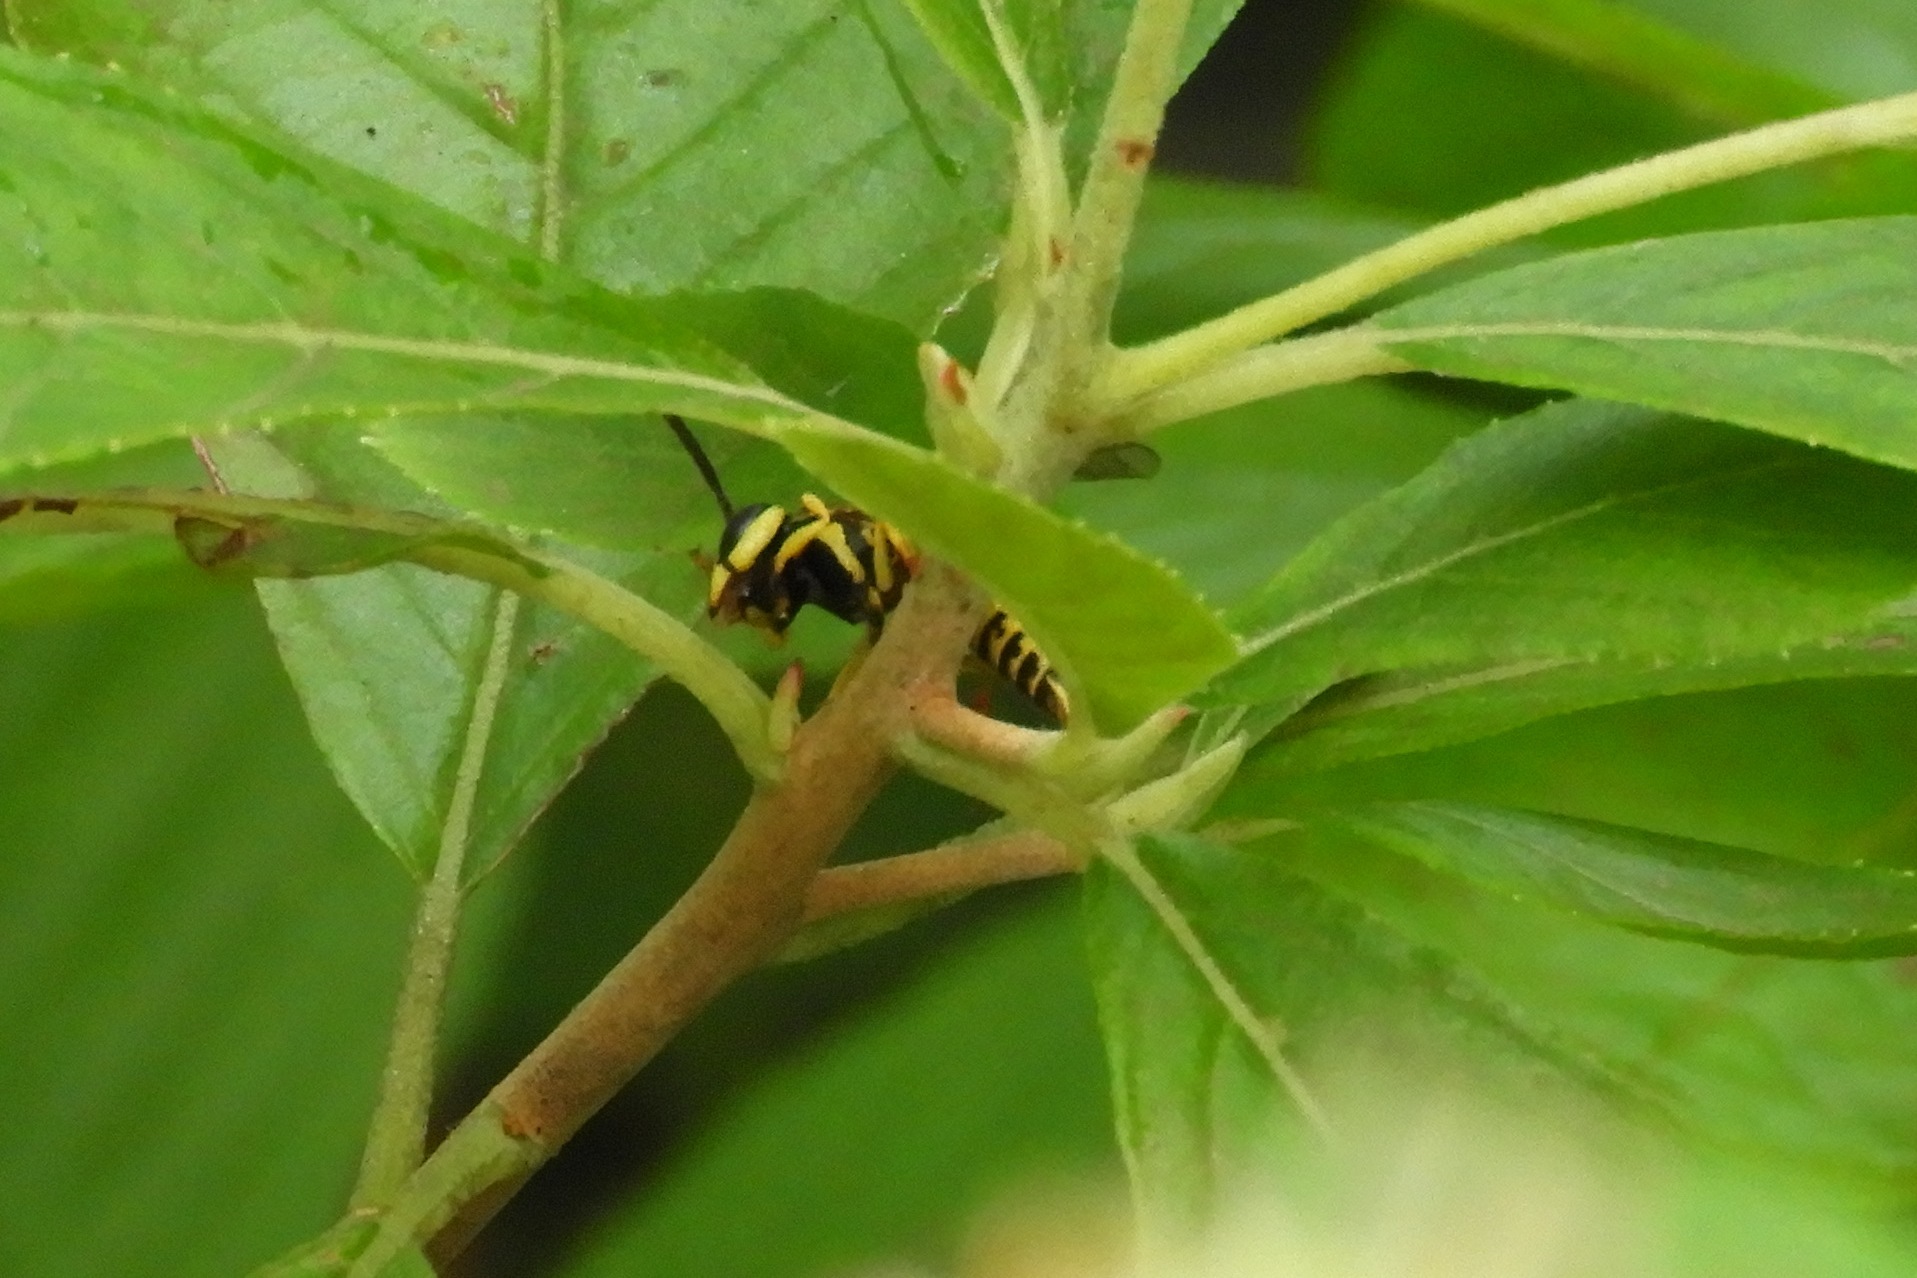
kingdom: Animalia
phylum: Arthropoda
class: Insecta
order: Hymenoptera
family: Vespidae
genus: Vespula
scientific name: Vespula squamosa
